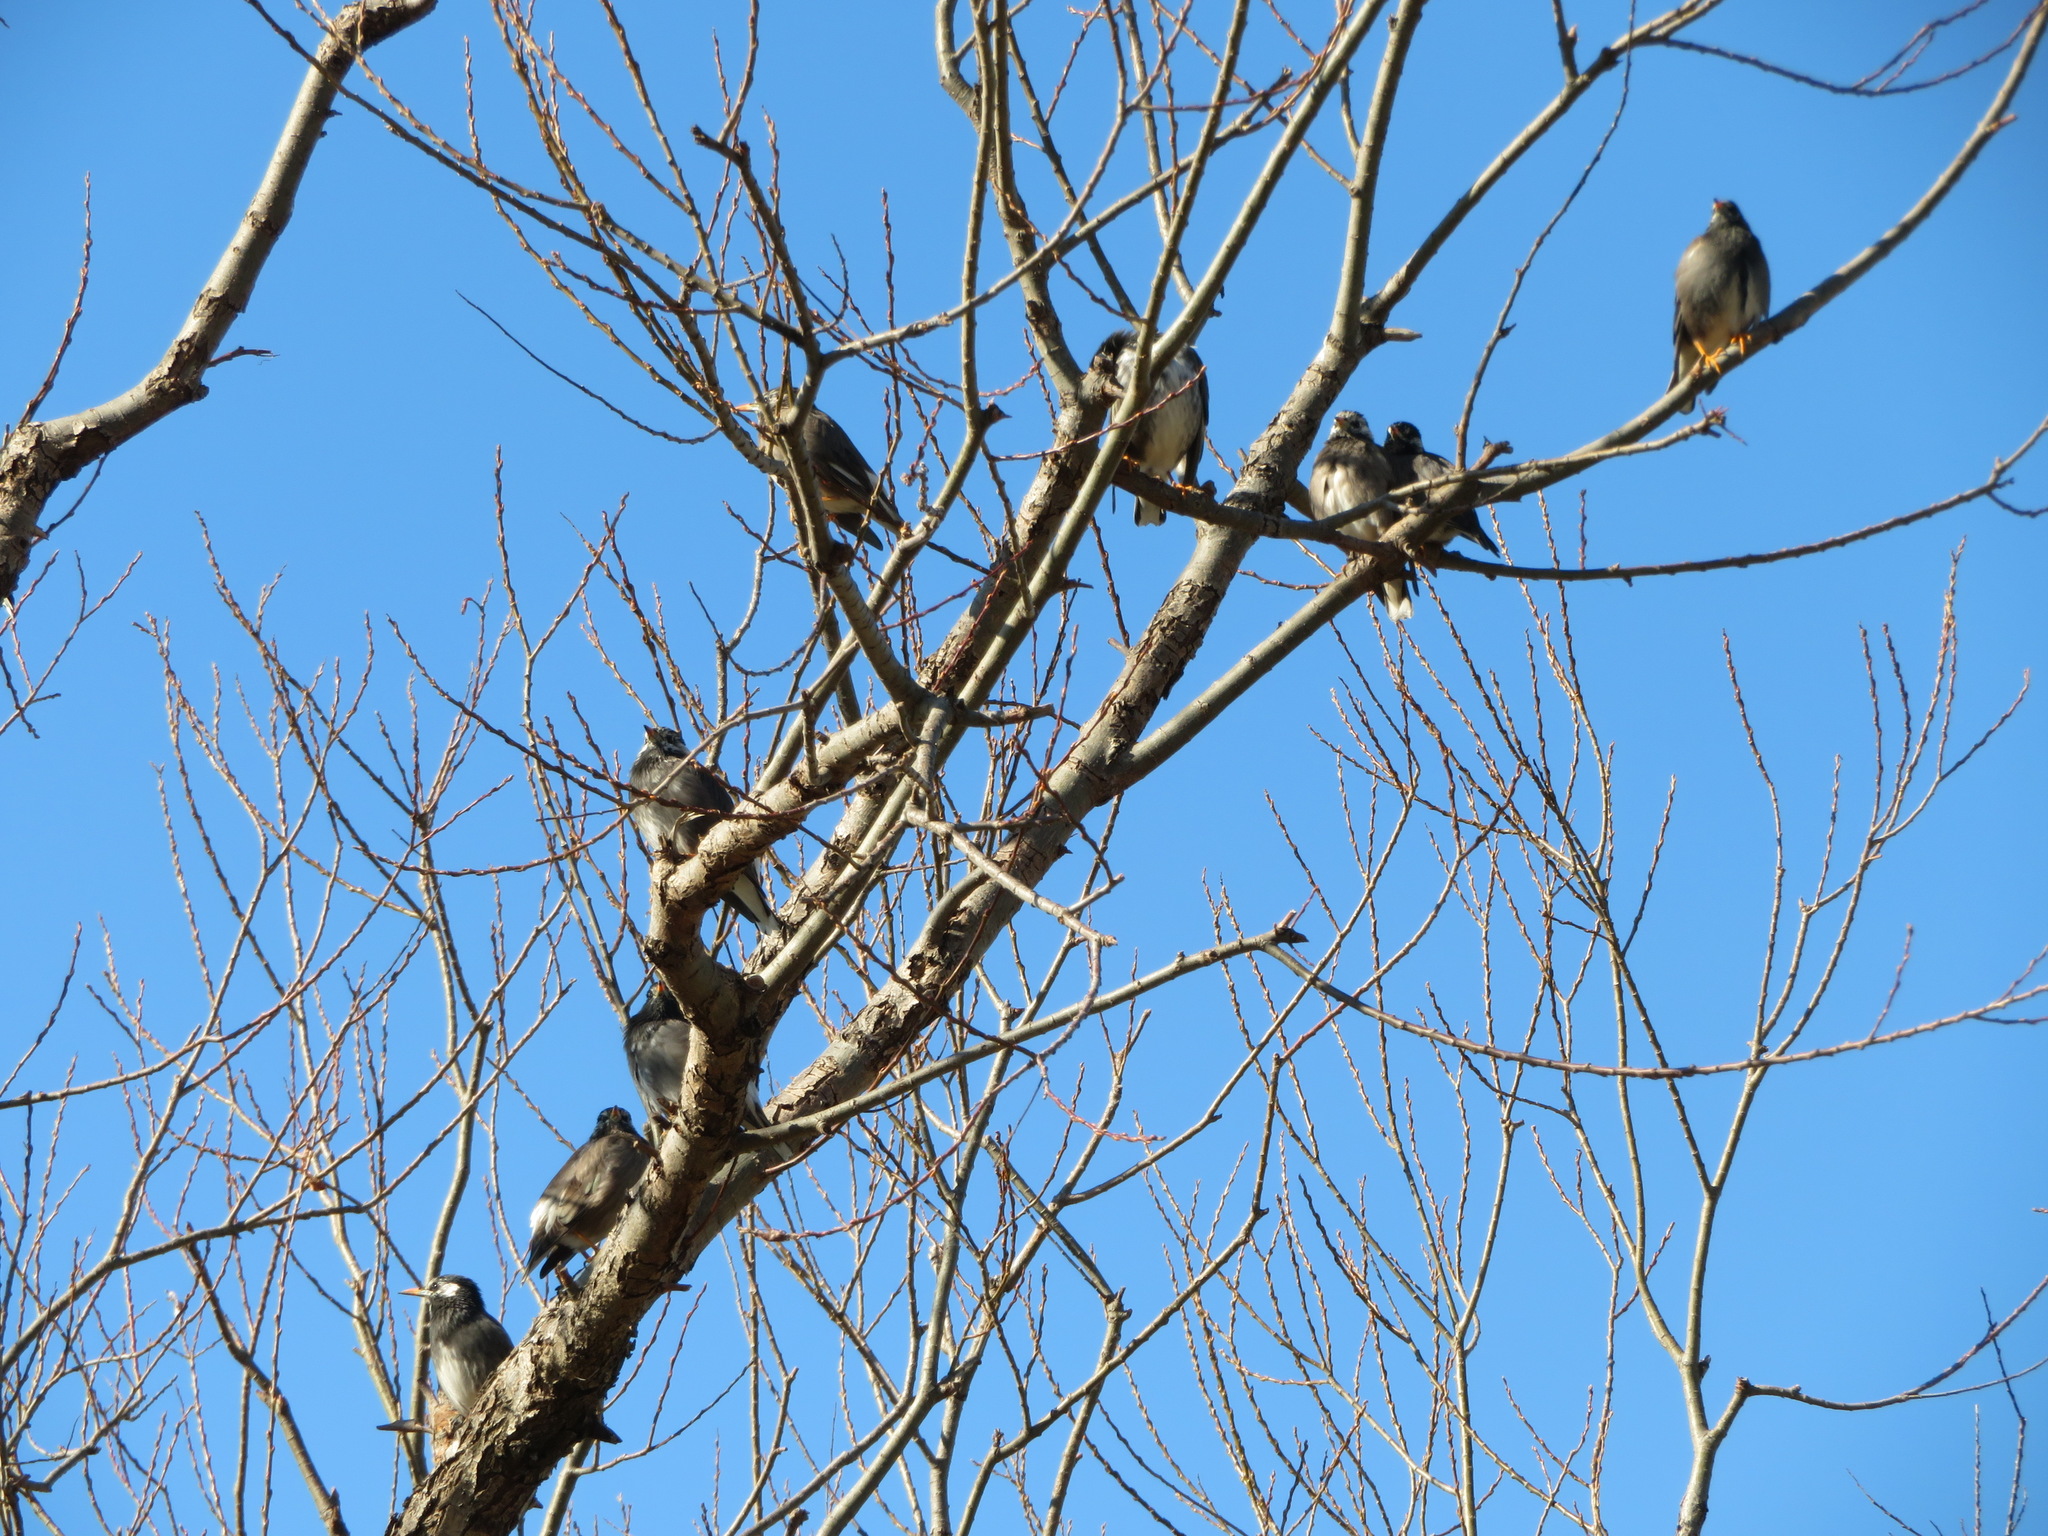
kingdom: Animalia
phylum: Chordata
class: Aves
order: Passeriformes
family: Sturnidae
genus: Spodiopsar
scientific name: Spodiopsar cineraceus
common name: White-cheeked starling
